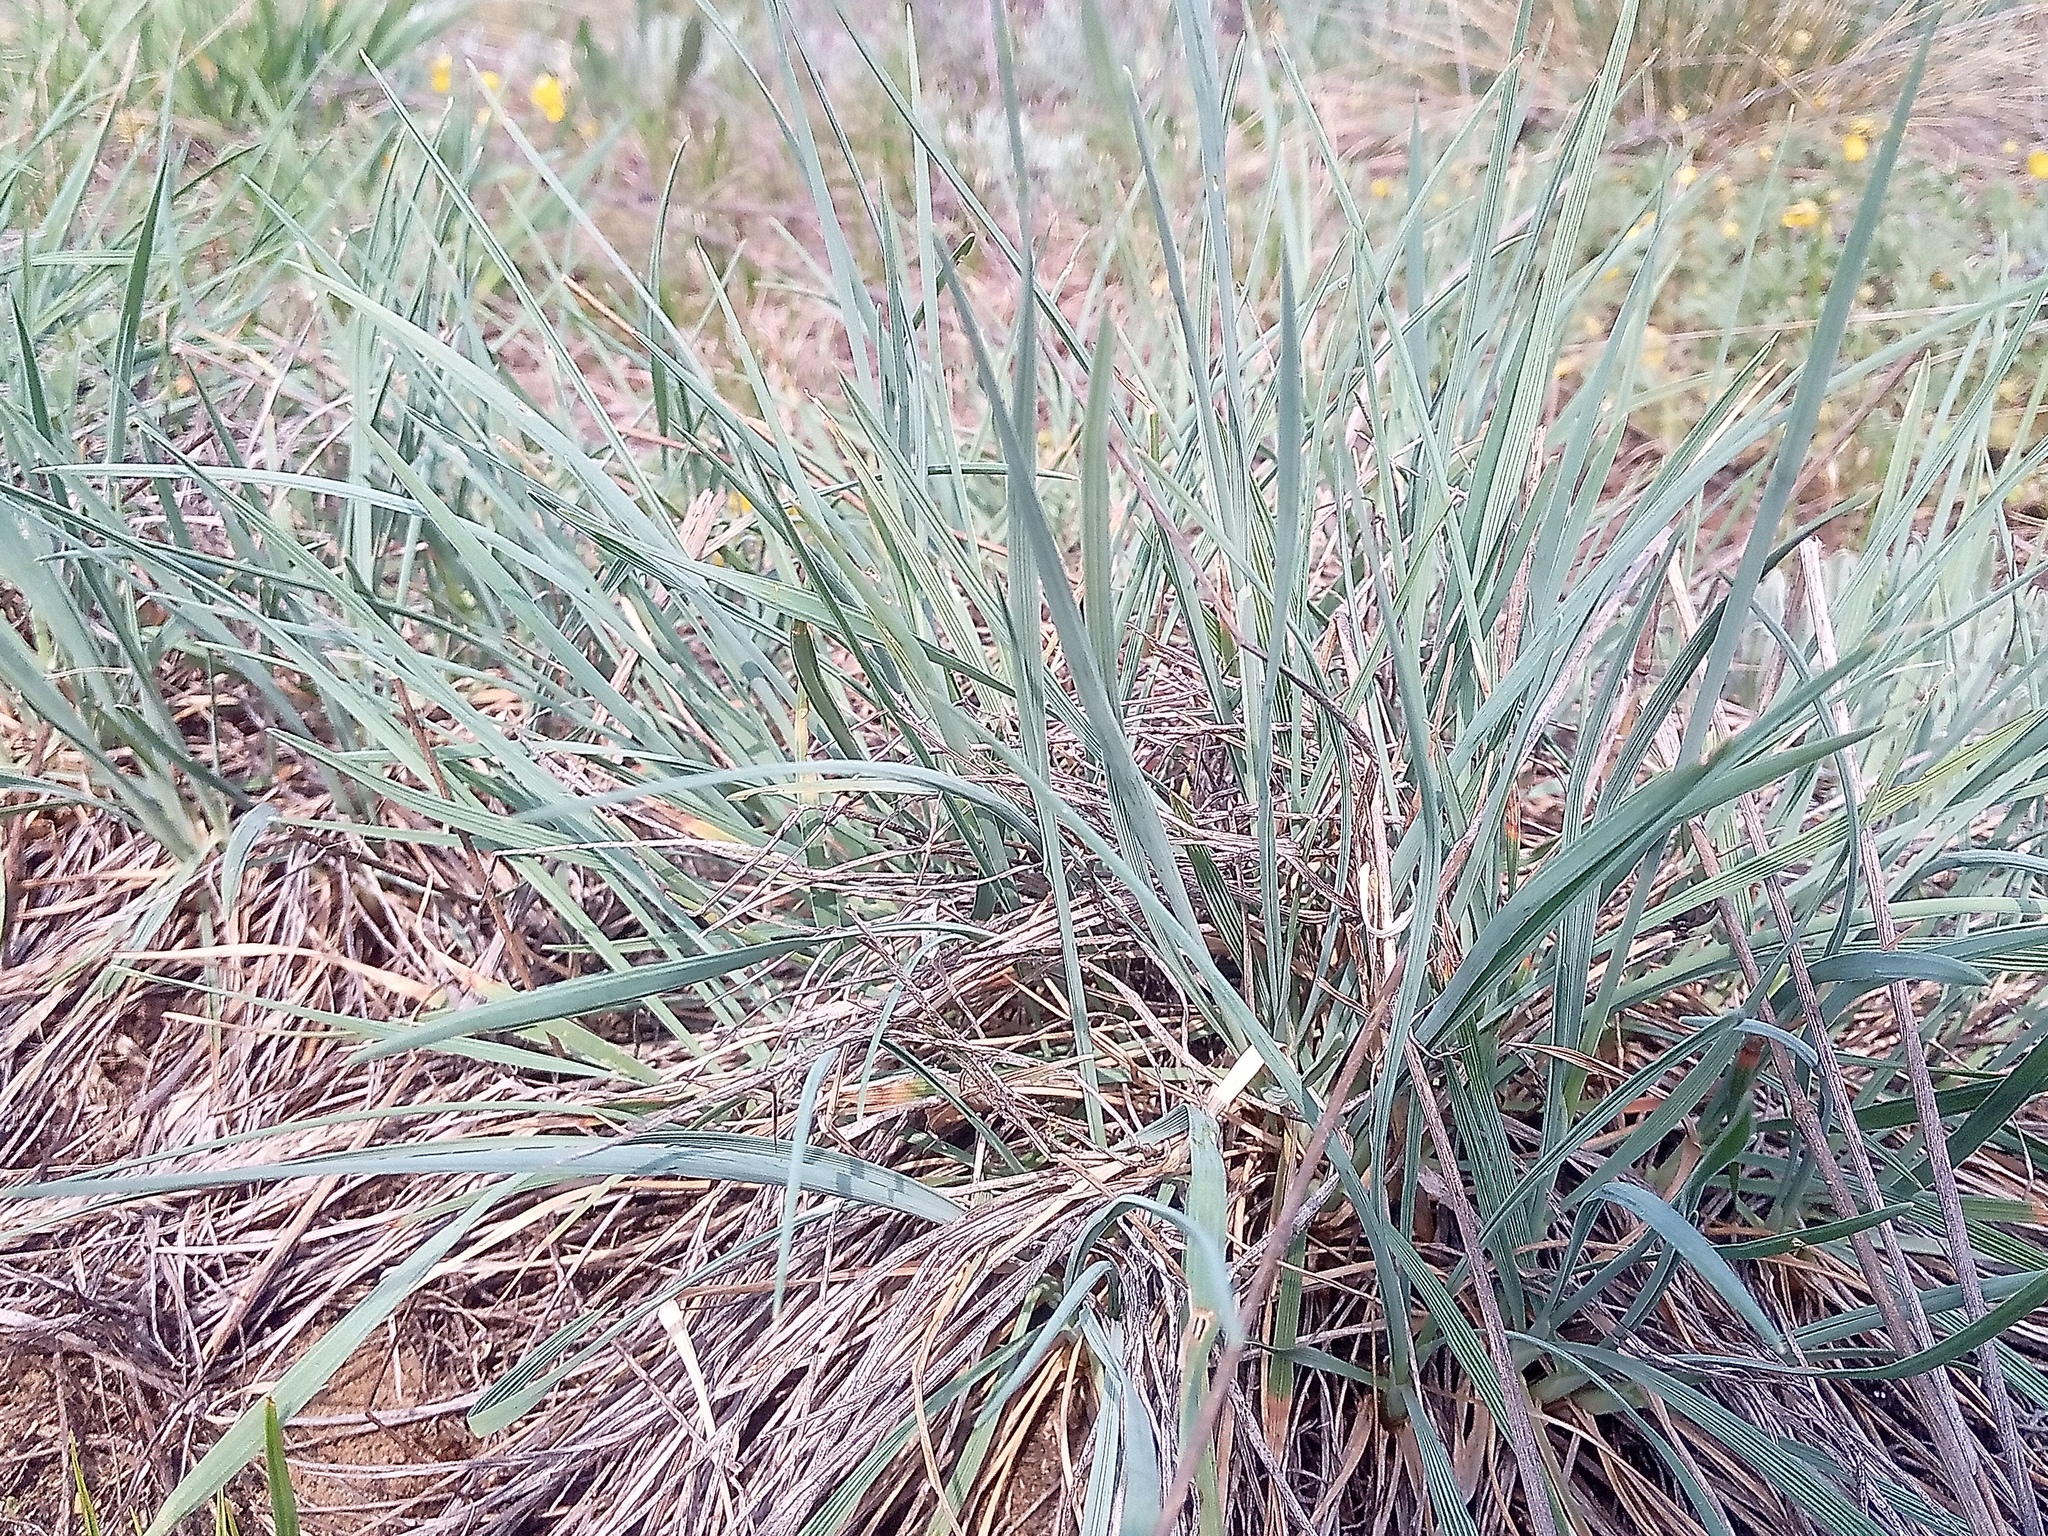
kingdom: Plantae
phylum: Tracheophyta
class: Liliopsida
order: Poales
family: Poaceae
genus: Koeleria
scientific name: Koeleria glauca
